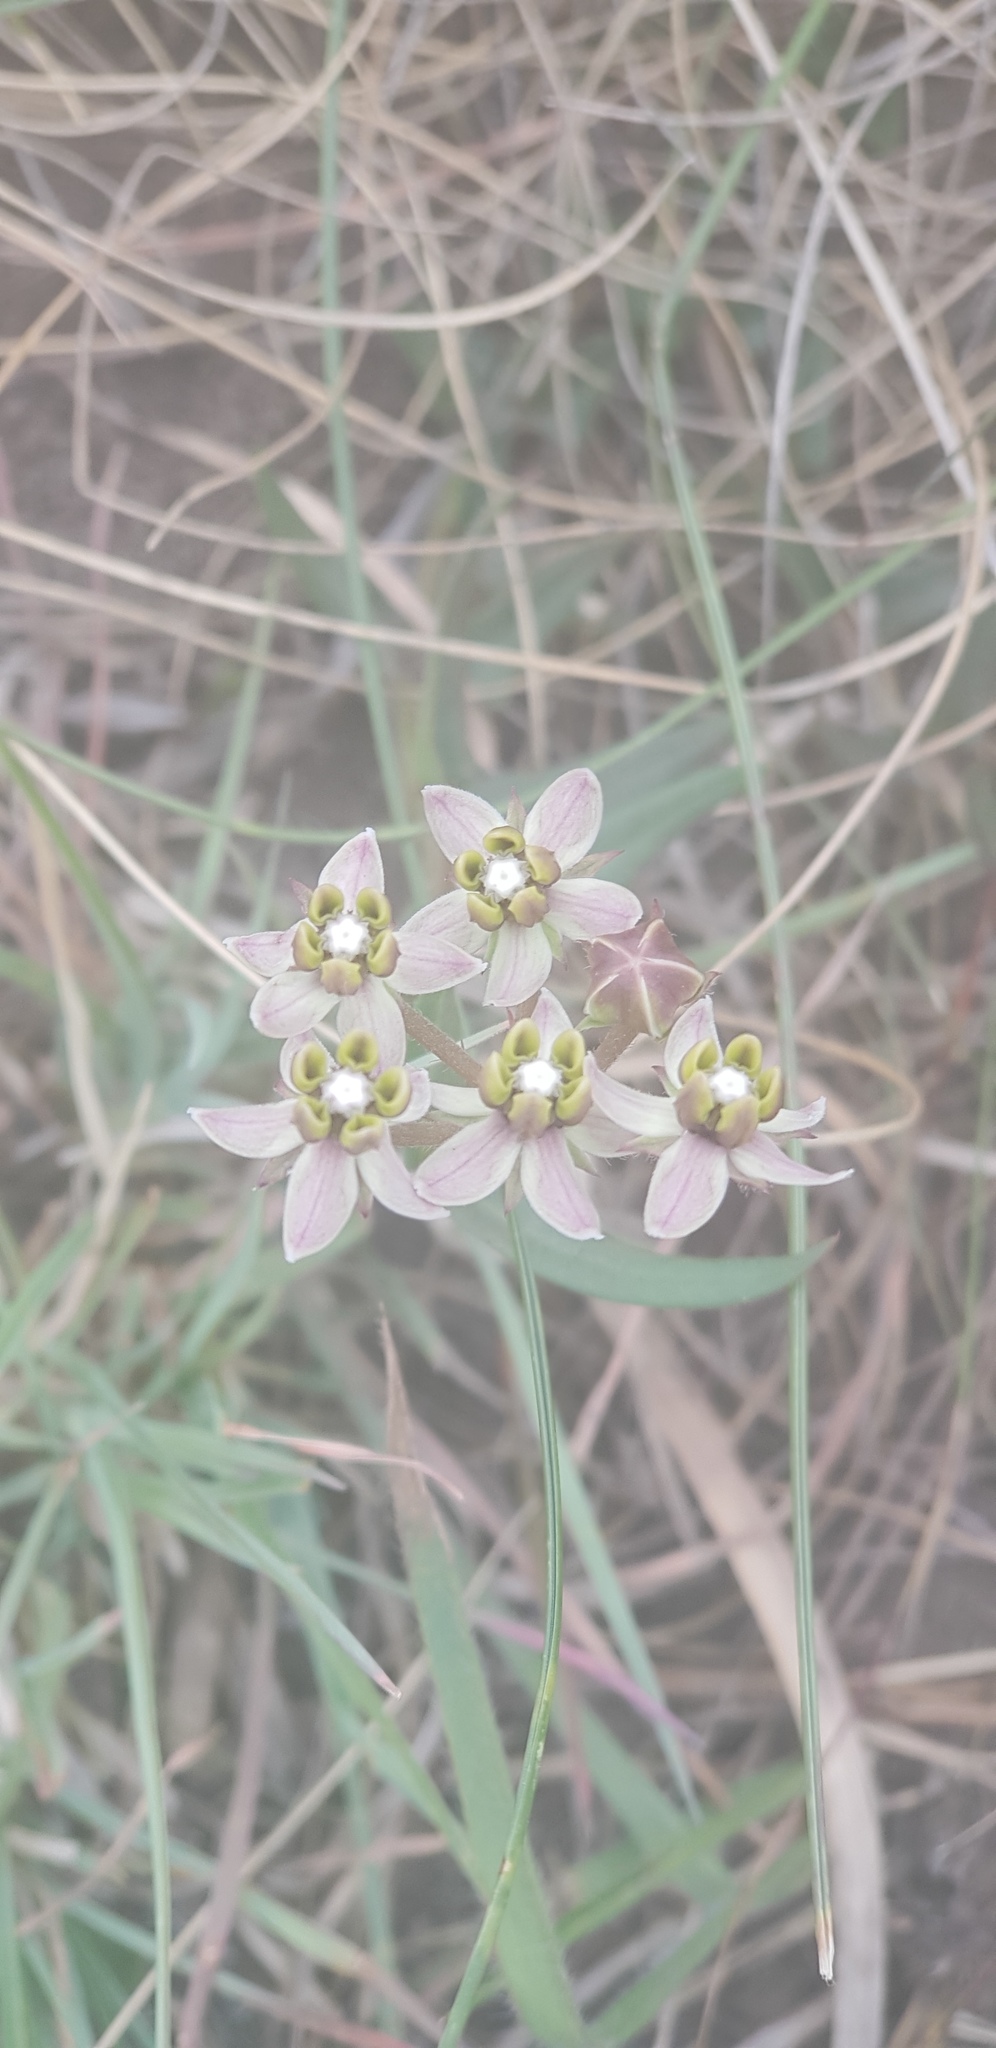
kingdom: Plantae
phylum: Tracheophyta
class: Magnoliopsida
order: Gentianales
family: Apocynaceae
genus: Asclepias
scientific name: Asclepias flexuosa
